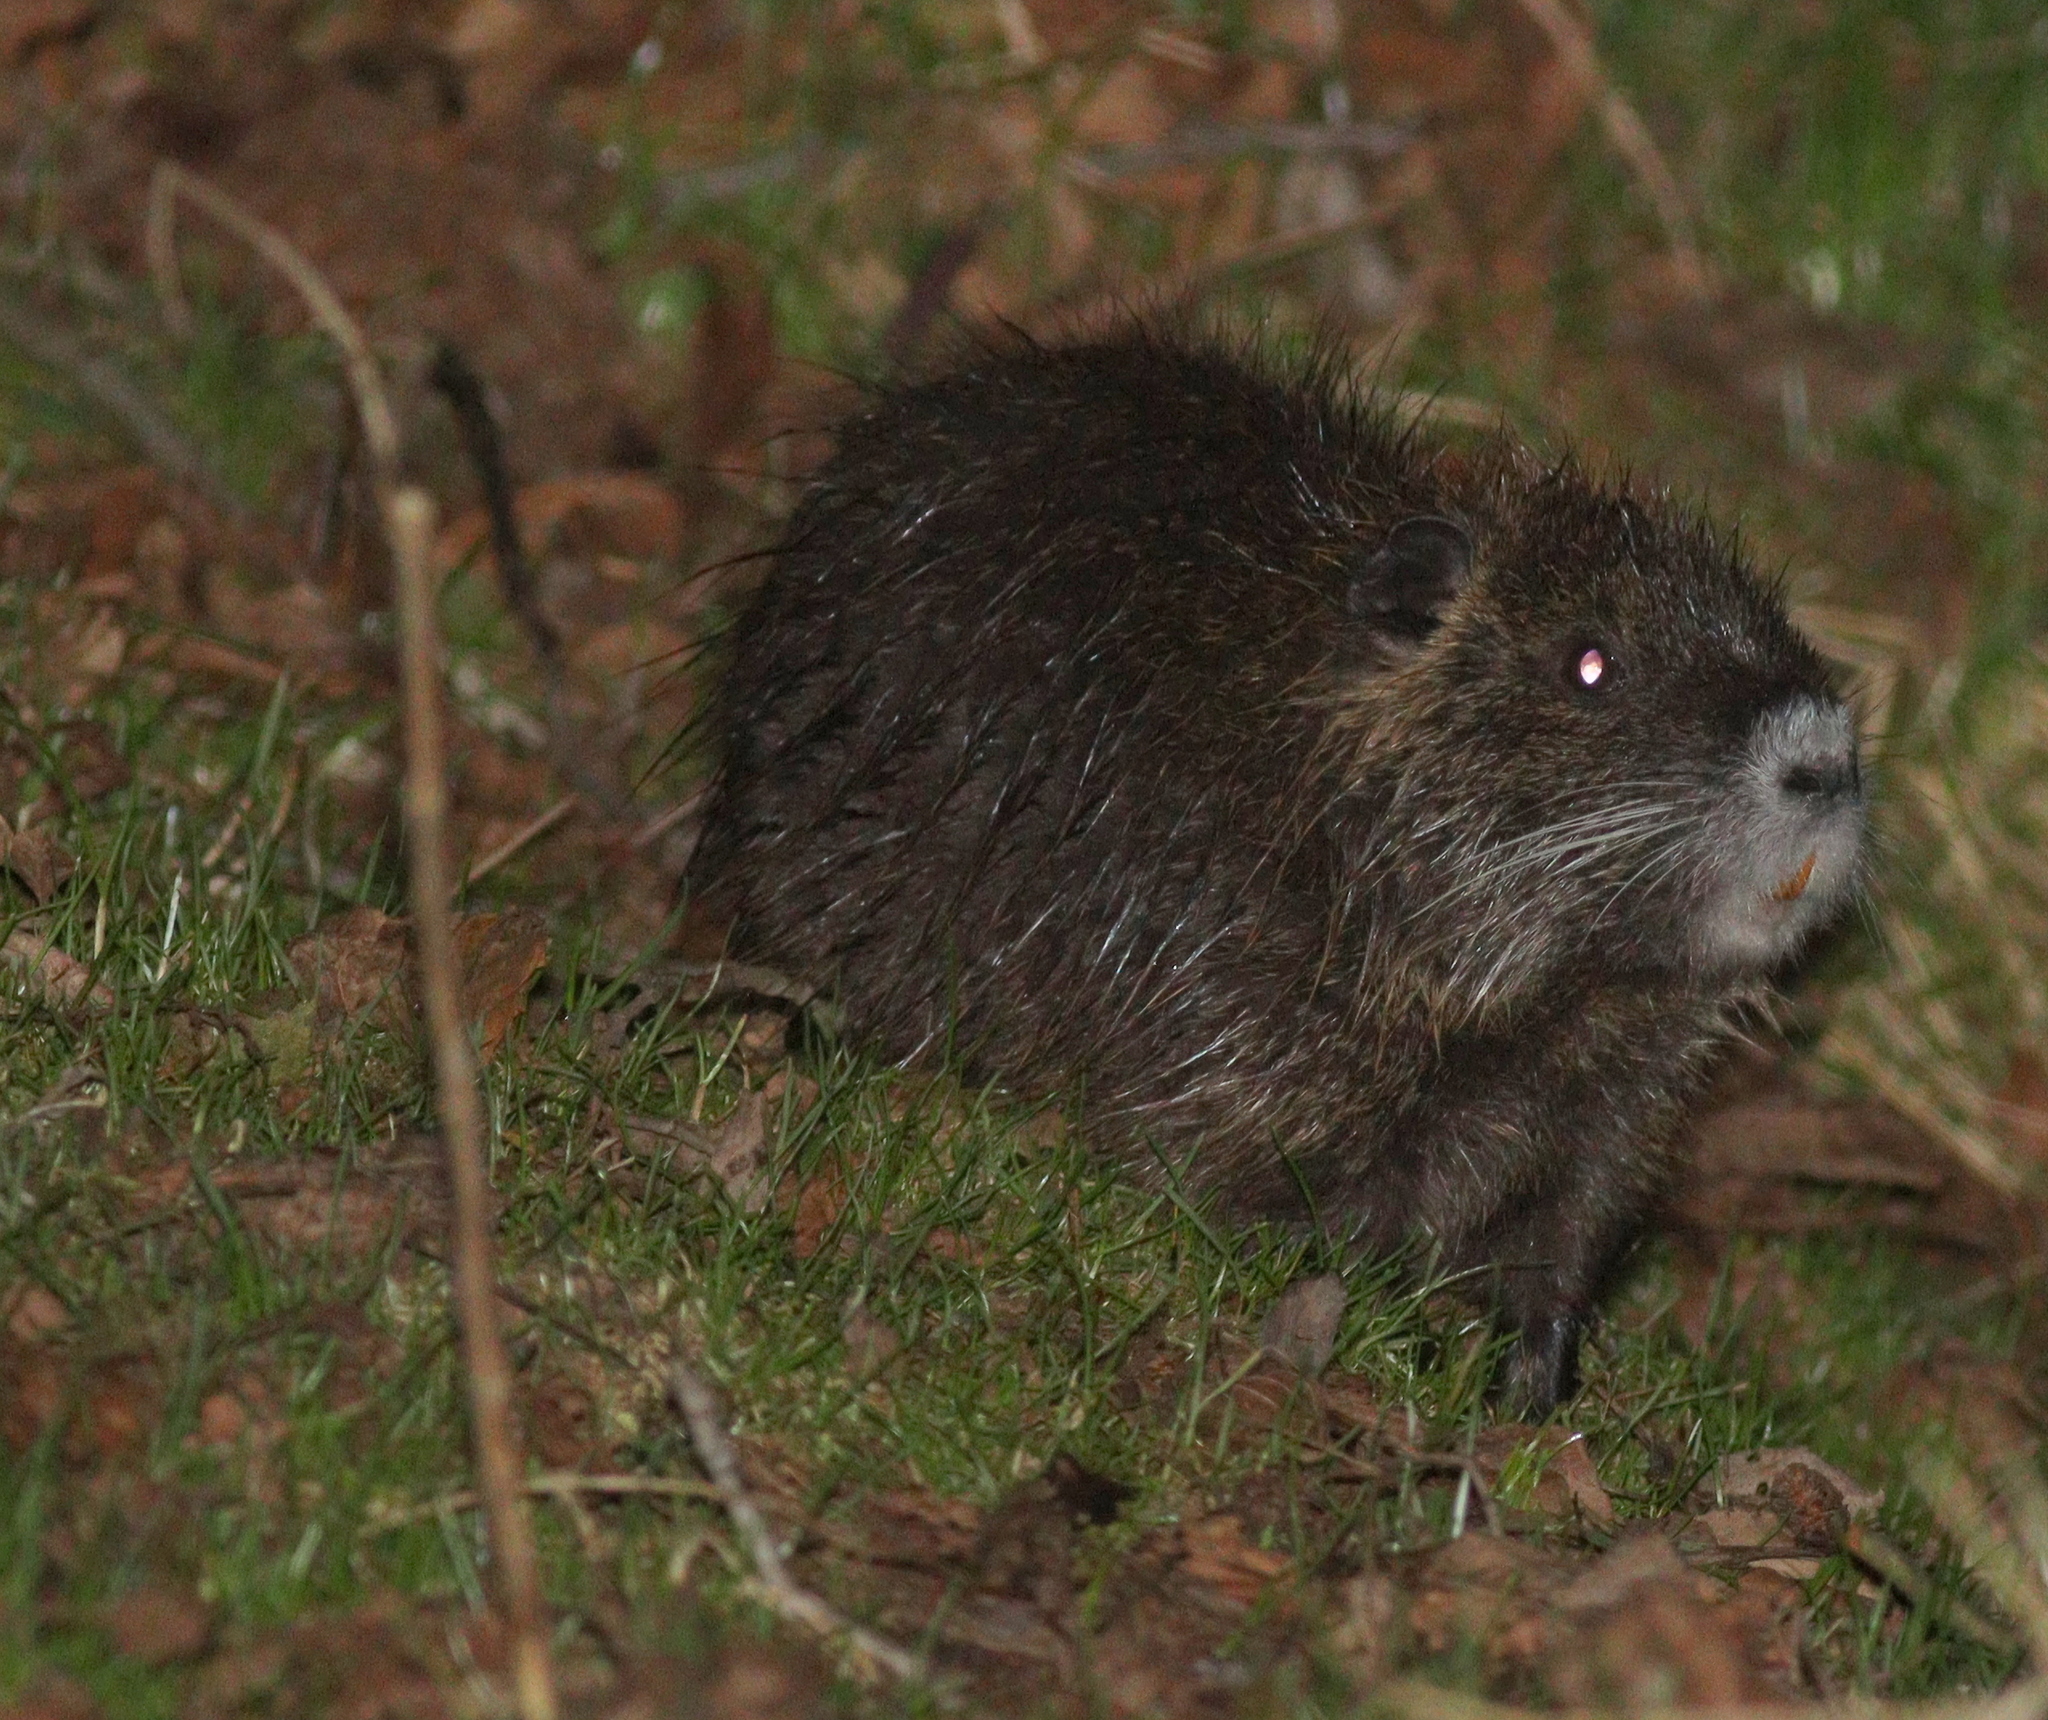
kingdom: Animalia
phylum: Chordata
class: Mammalia
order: Rodentia
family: Myocastoridae
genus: Myocastor
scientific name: Myocastor coypus
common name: Coypu
